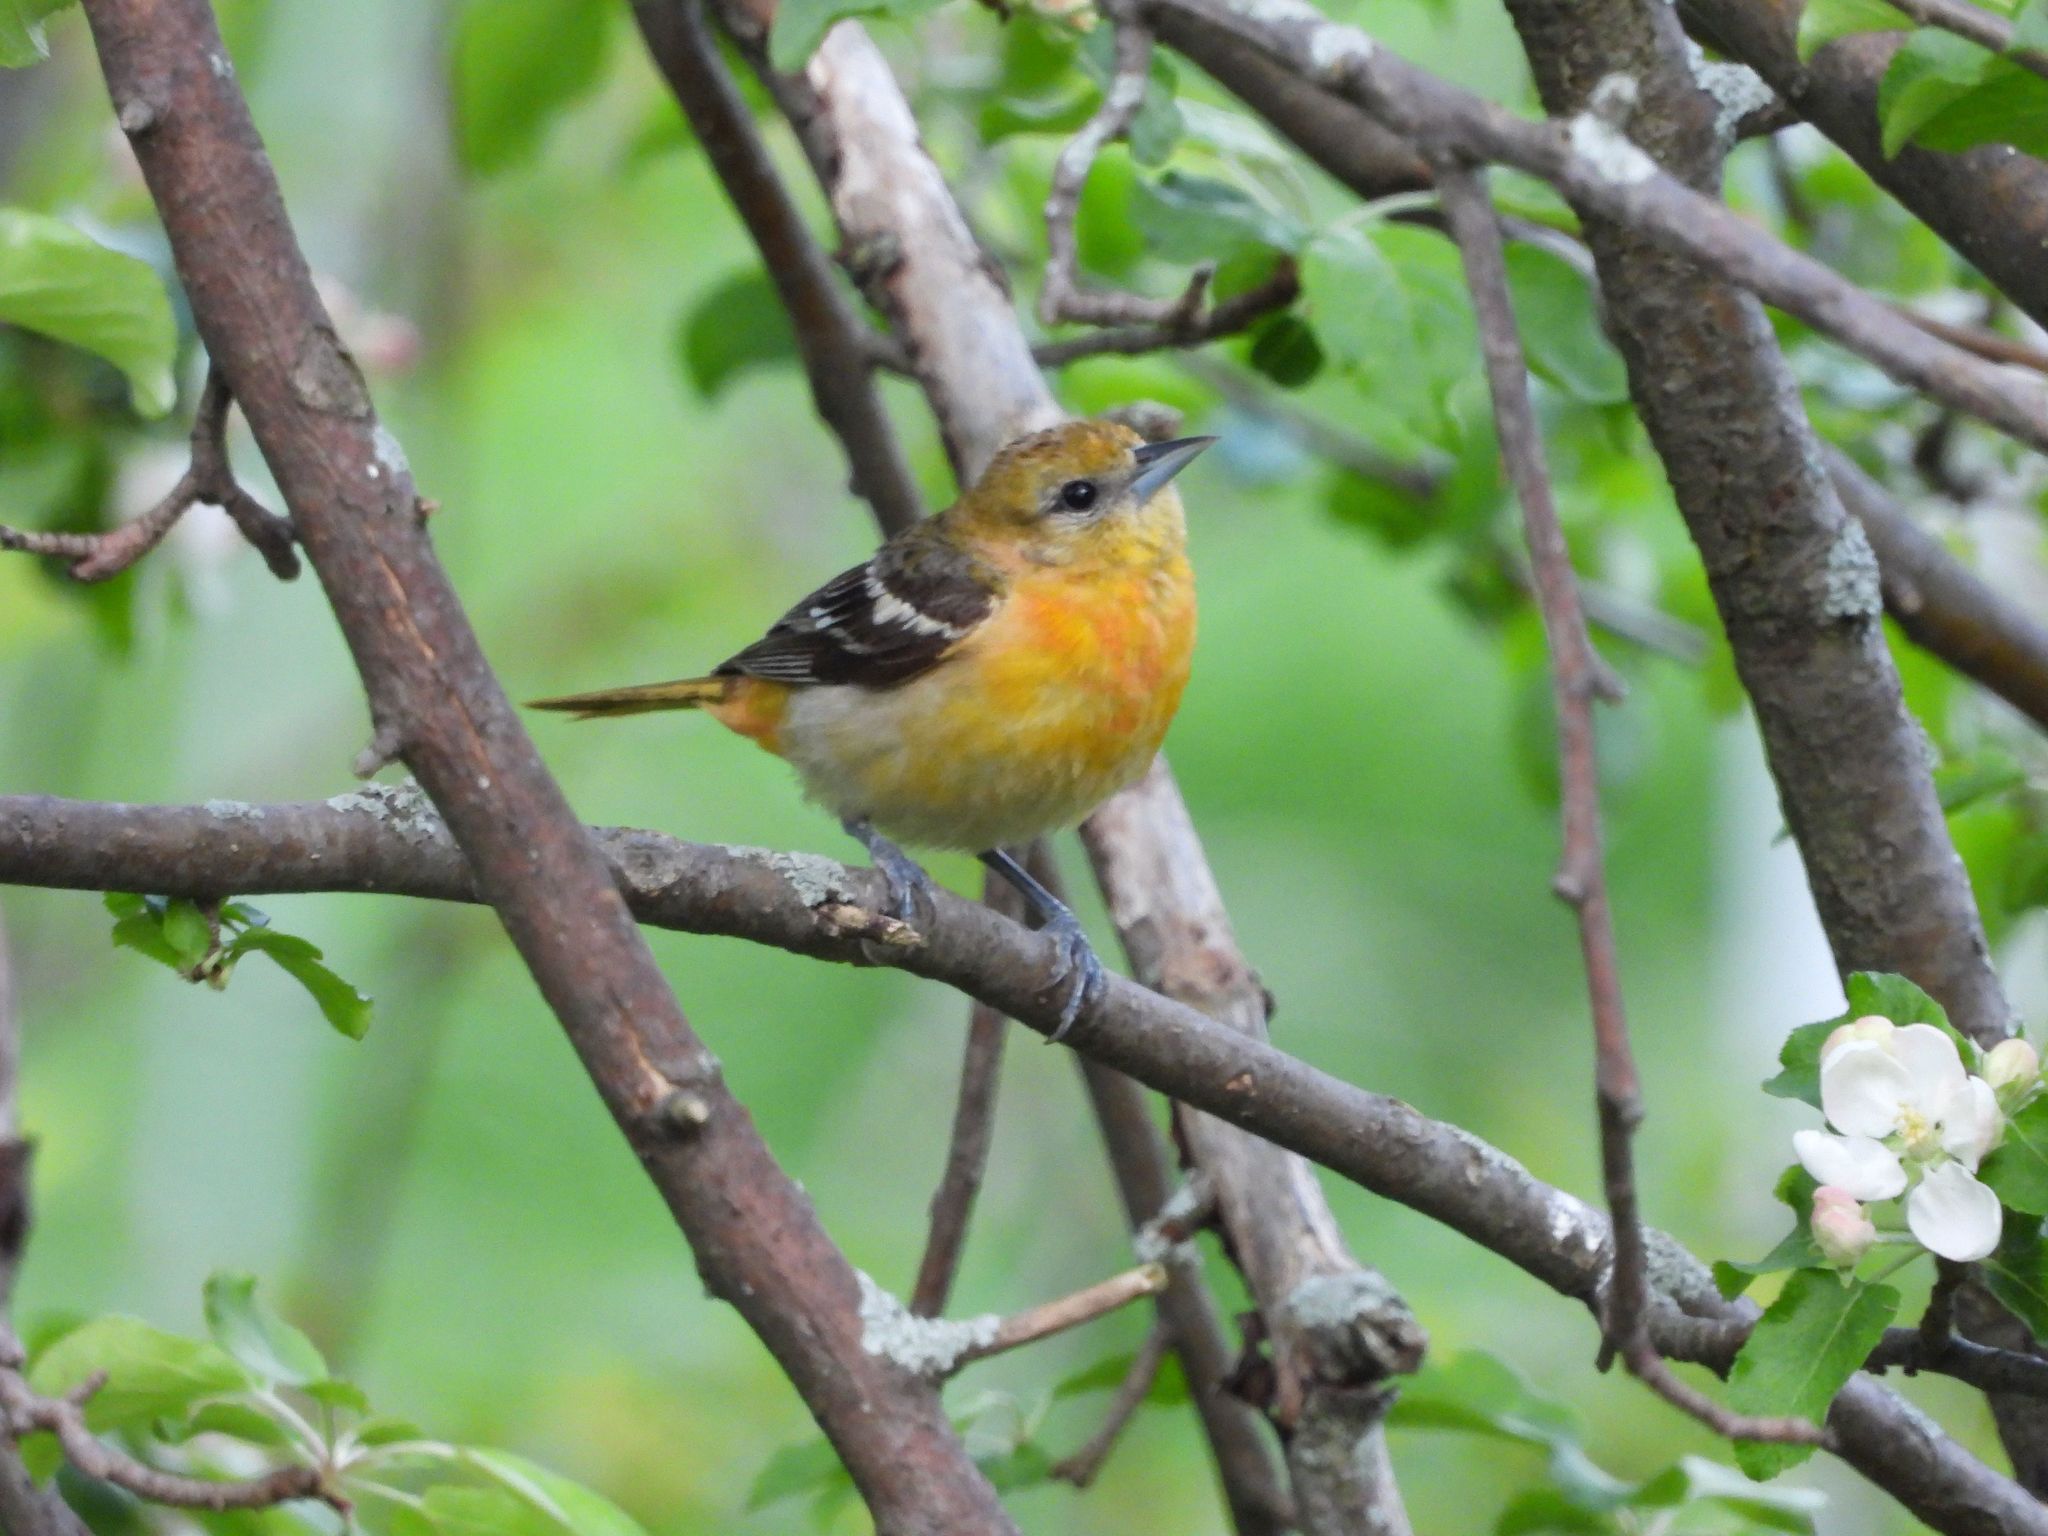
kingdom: Animalia
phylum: Chordata
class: Aves
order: Passeriformes
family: Icteridae
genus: Icterus
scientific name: Icterus galbula
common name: Baltimore oriole
